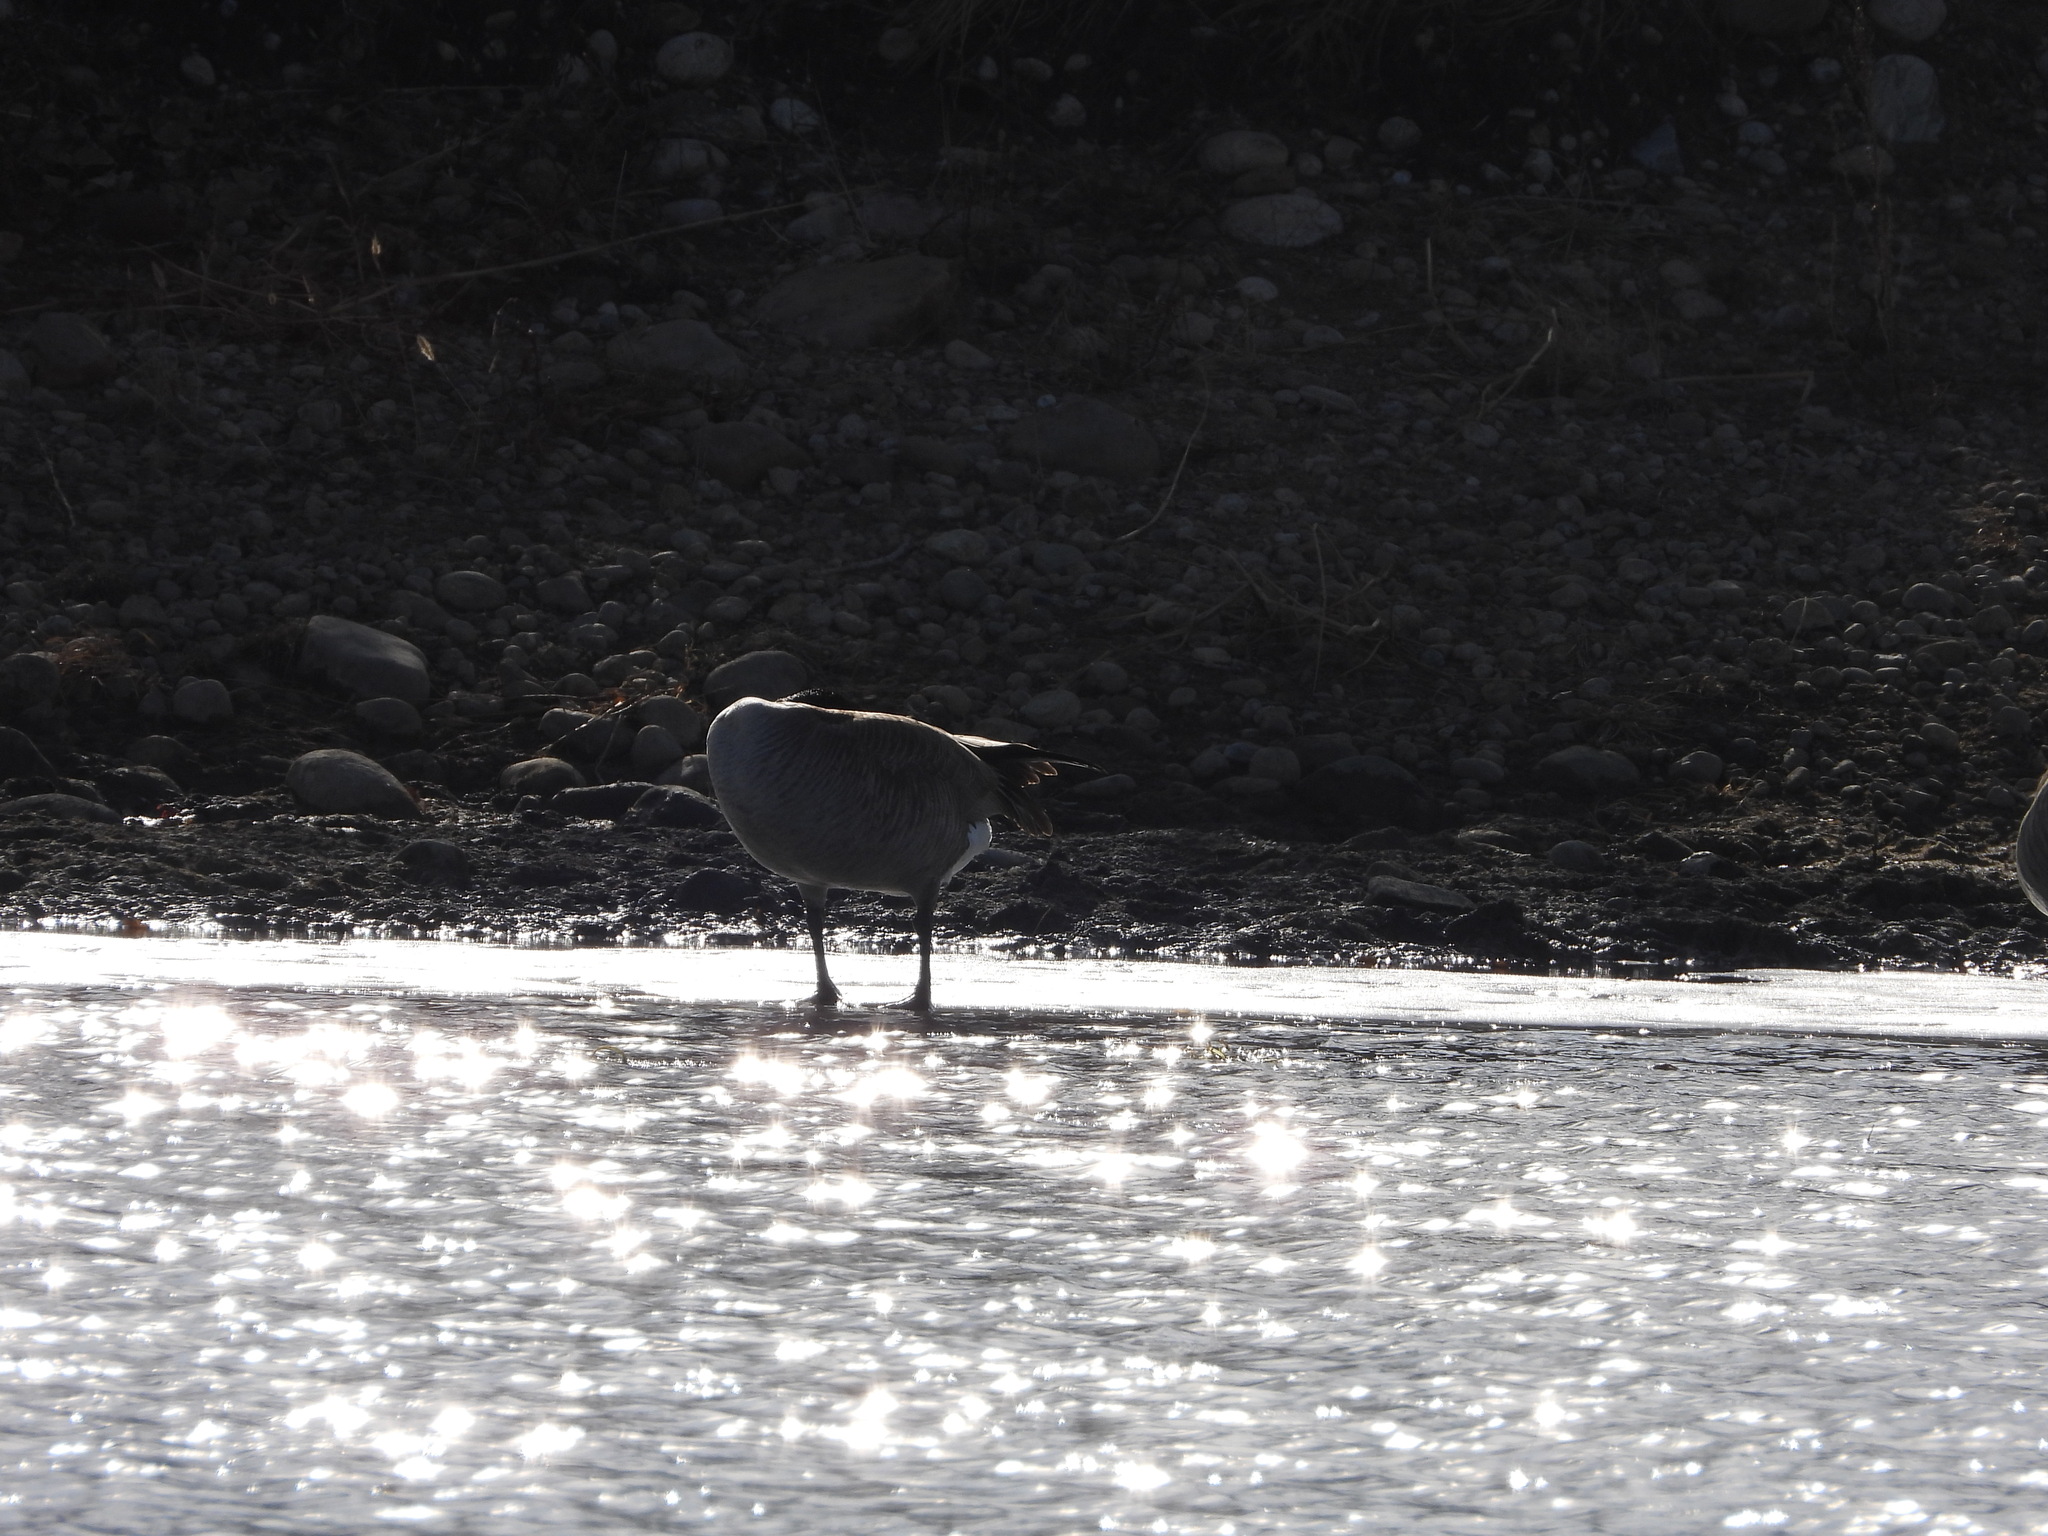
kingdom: Animalia
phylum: Chordata
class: Aves
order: Anseriformes
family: Anatidae
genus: Branta
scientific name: Branta canadensis
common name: Canada goose
